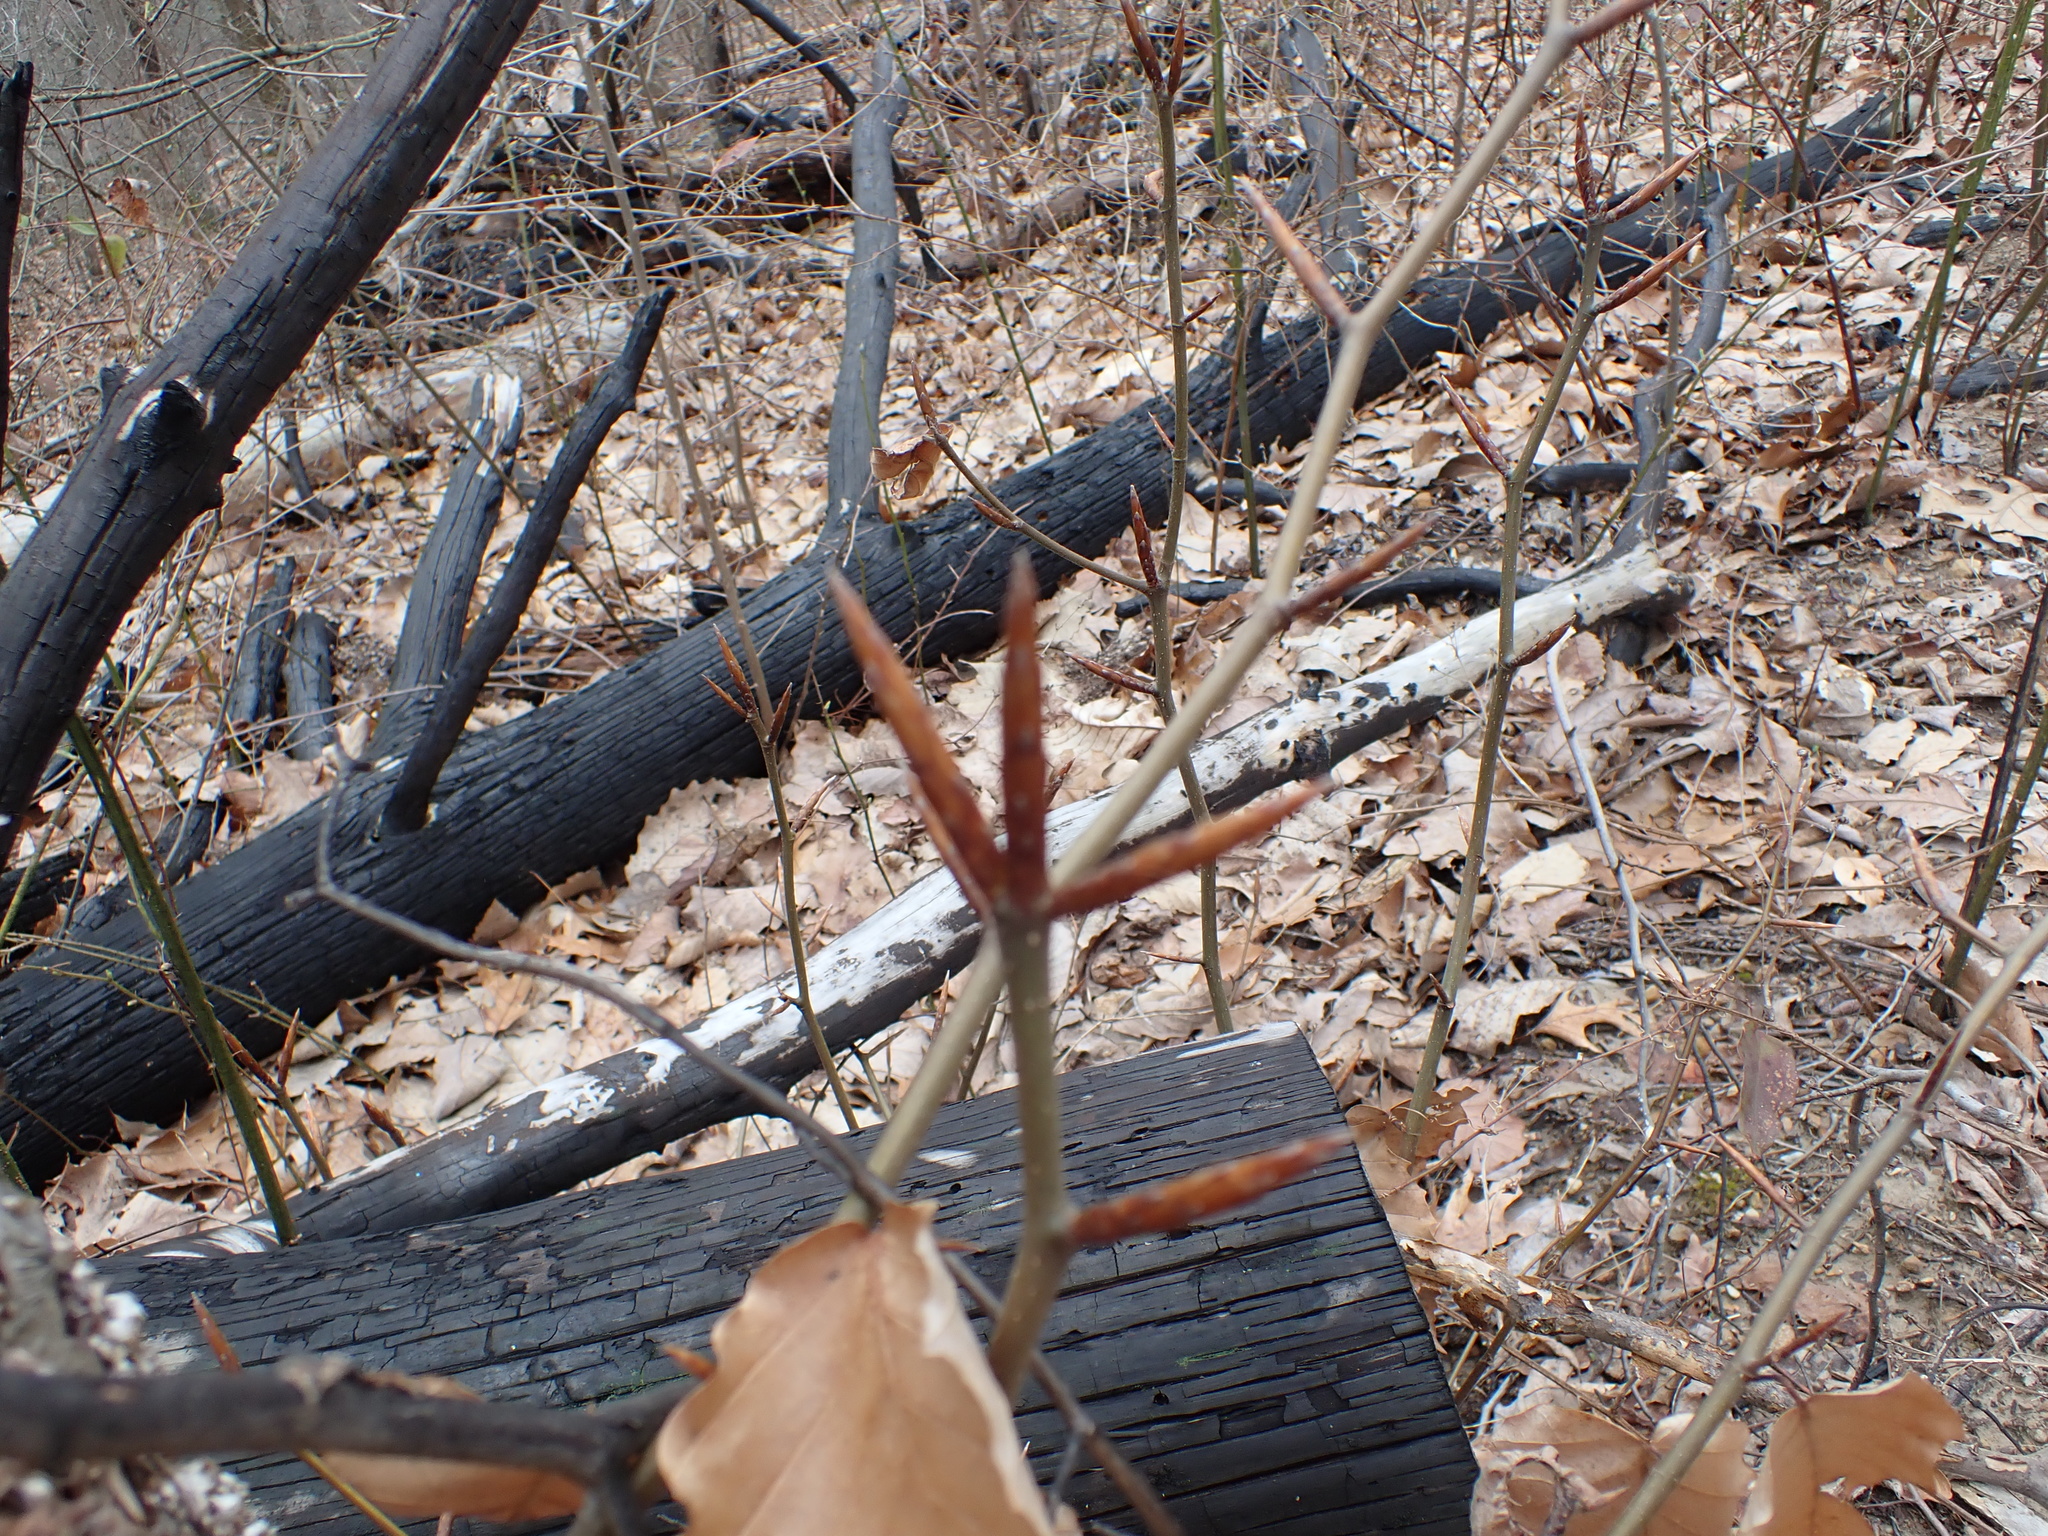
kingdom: Plantae
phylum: Tracheophyta
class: Magnoliopsida
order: Fagales
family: Fagaceae
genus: Fagus
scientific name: Fagus grandifolia
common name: American beech
